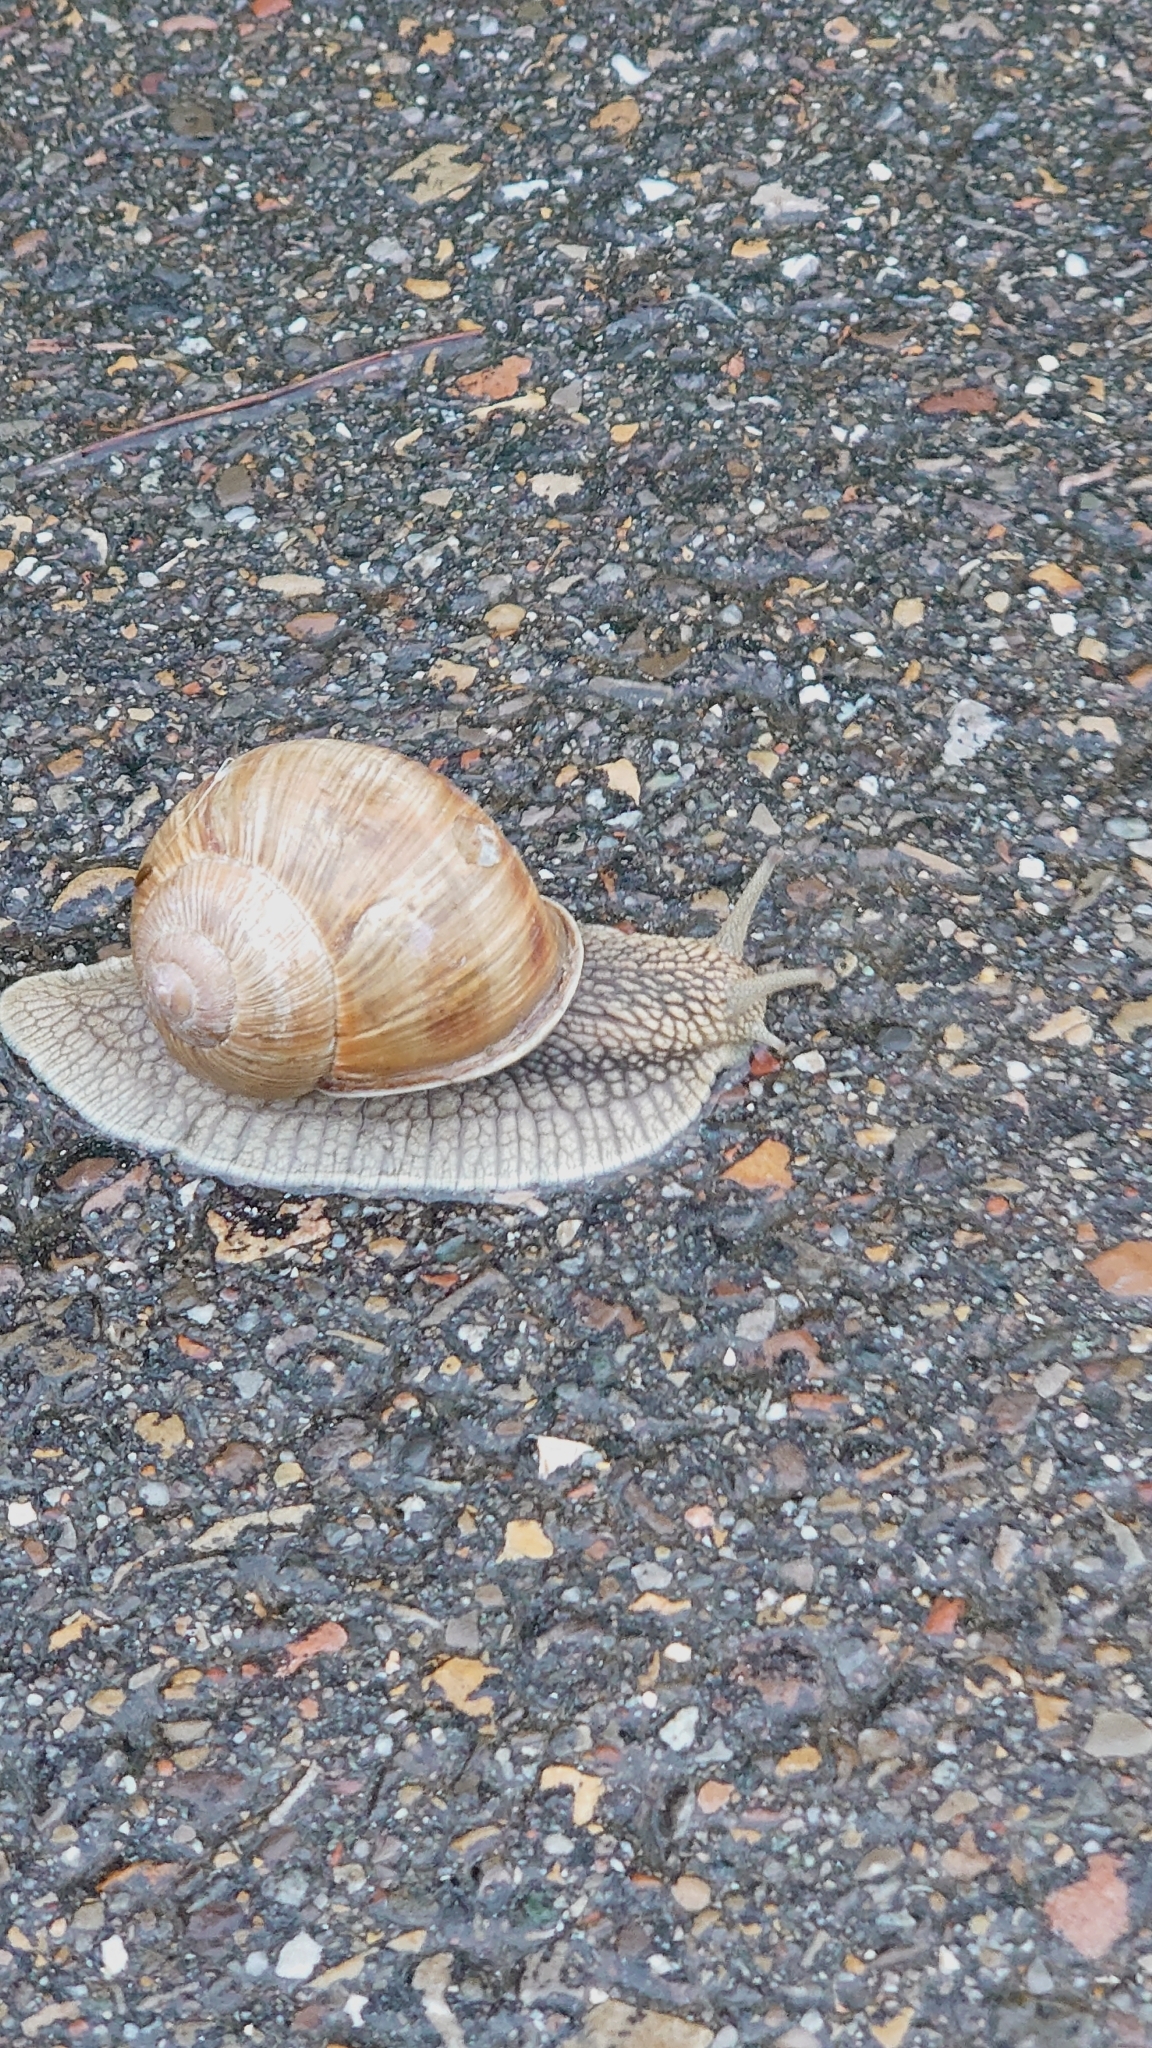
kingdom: Animalia
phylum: Mollusca
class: Gastropoda
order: Stylommatophora
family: Helicidae
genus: Helix
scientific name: Helix pomatia
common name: Roman snail
